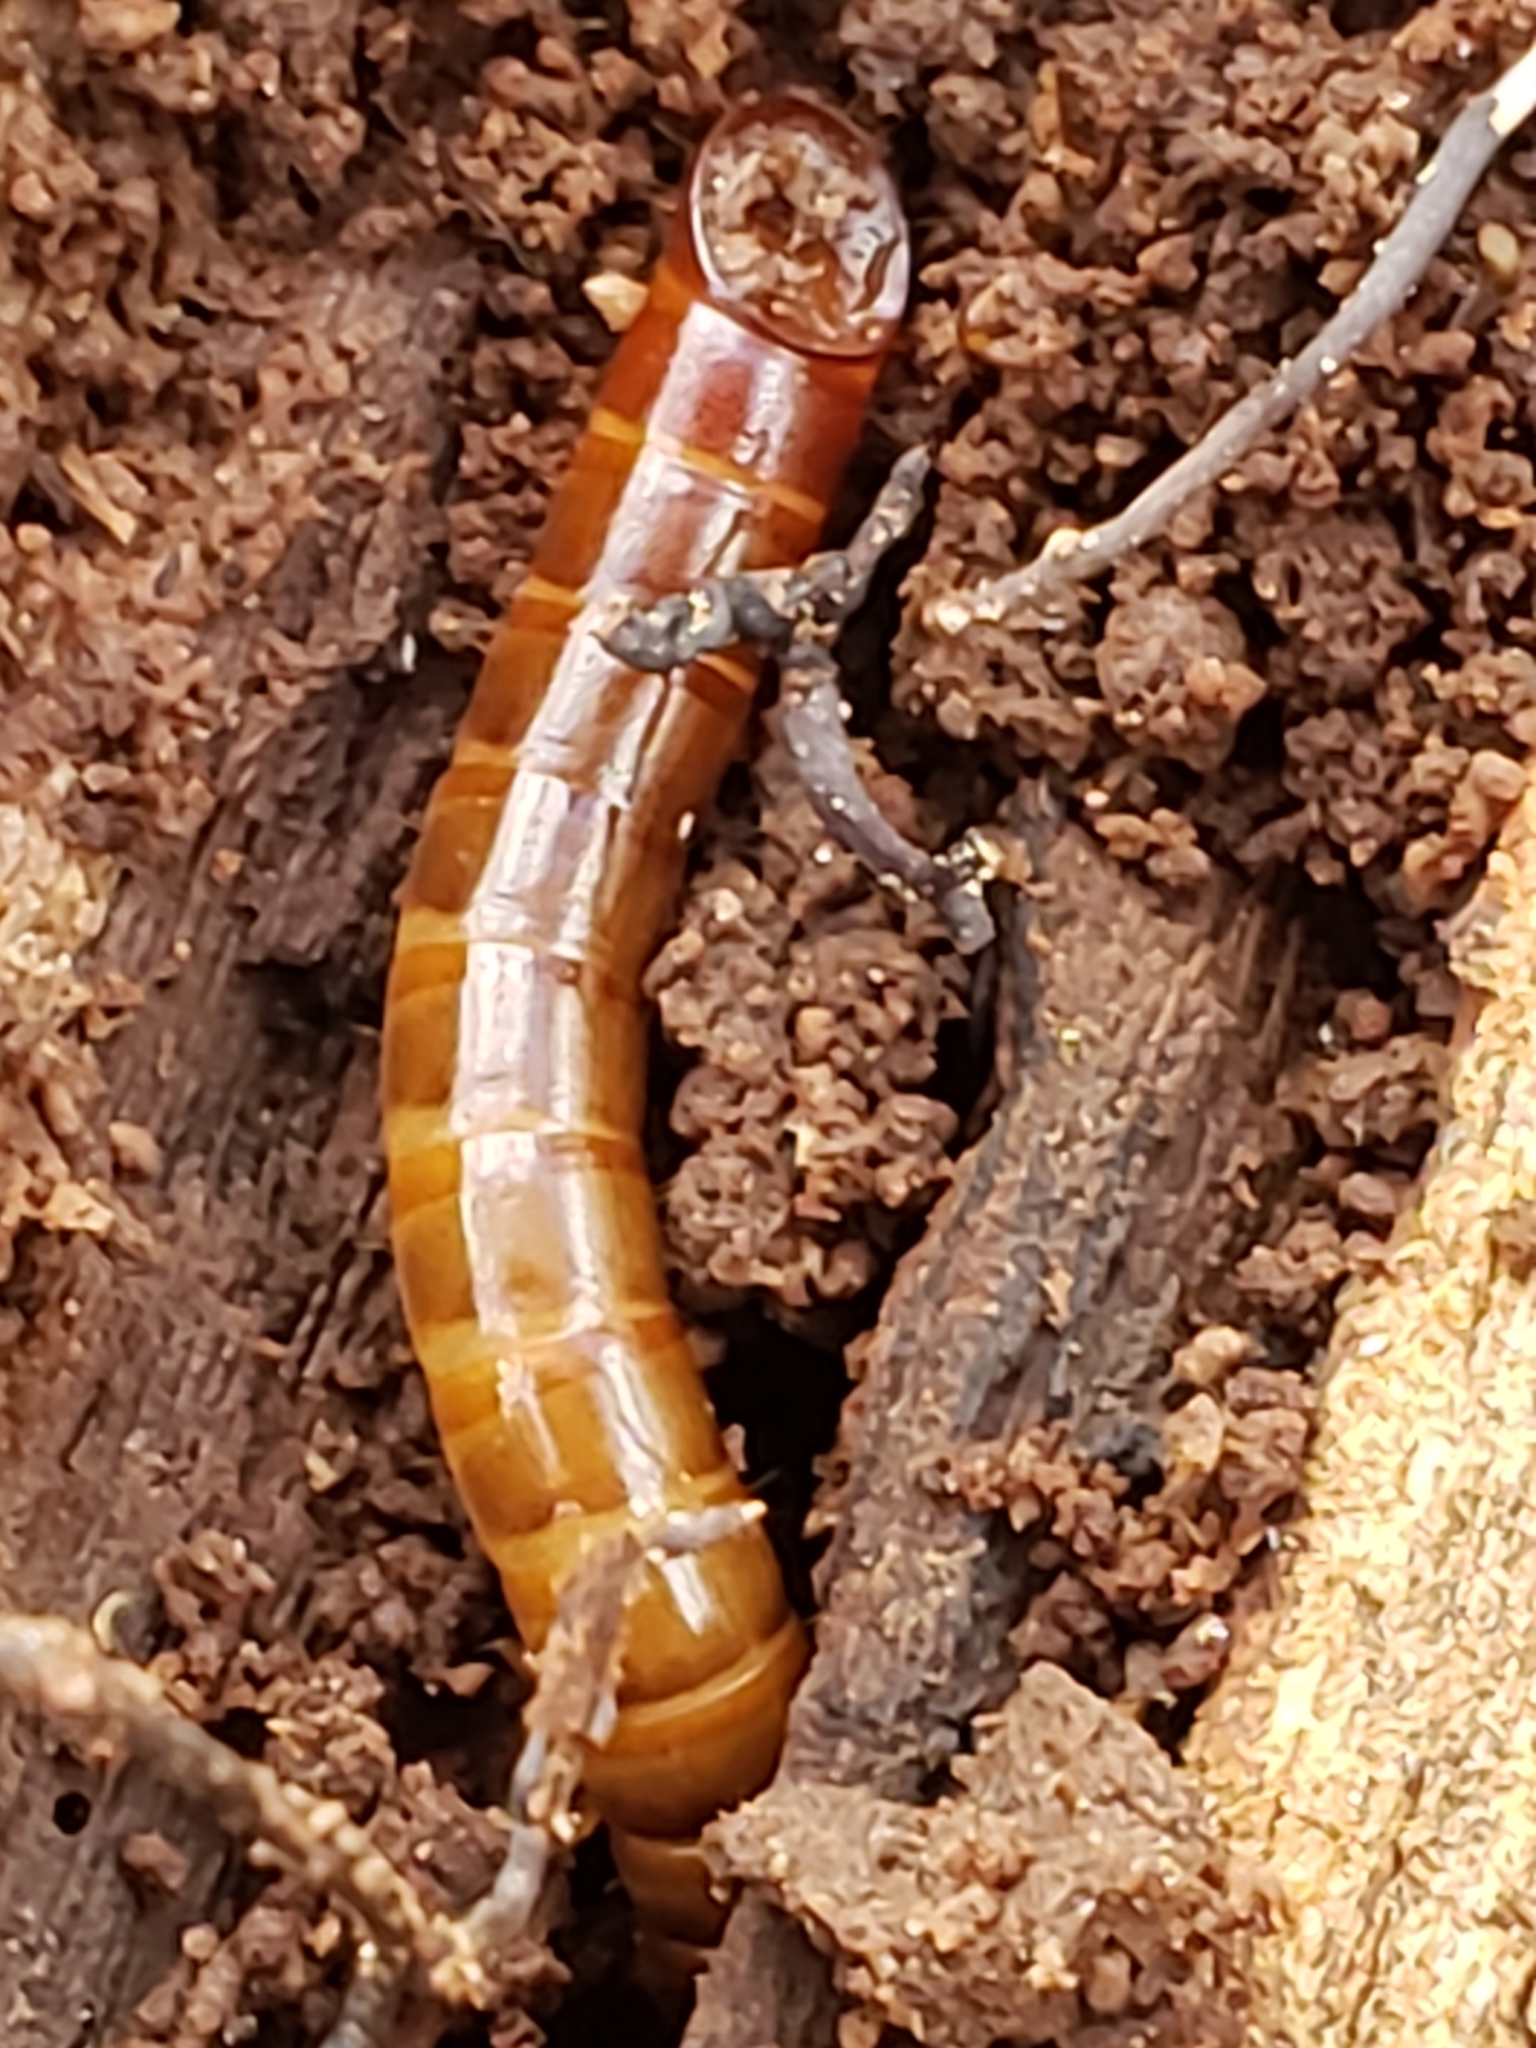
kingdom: Animalia
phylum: Arthropoda
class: Insecta
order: Coleoptera
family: Tenebrionidae
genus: Meracantha
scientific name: Meracantha contracta
